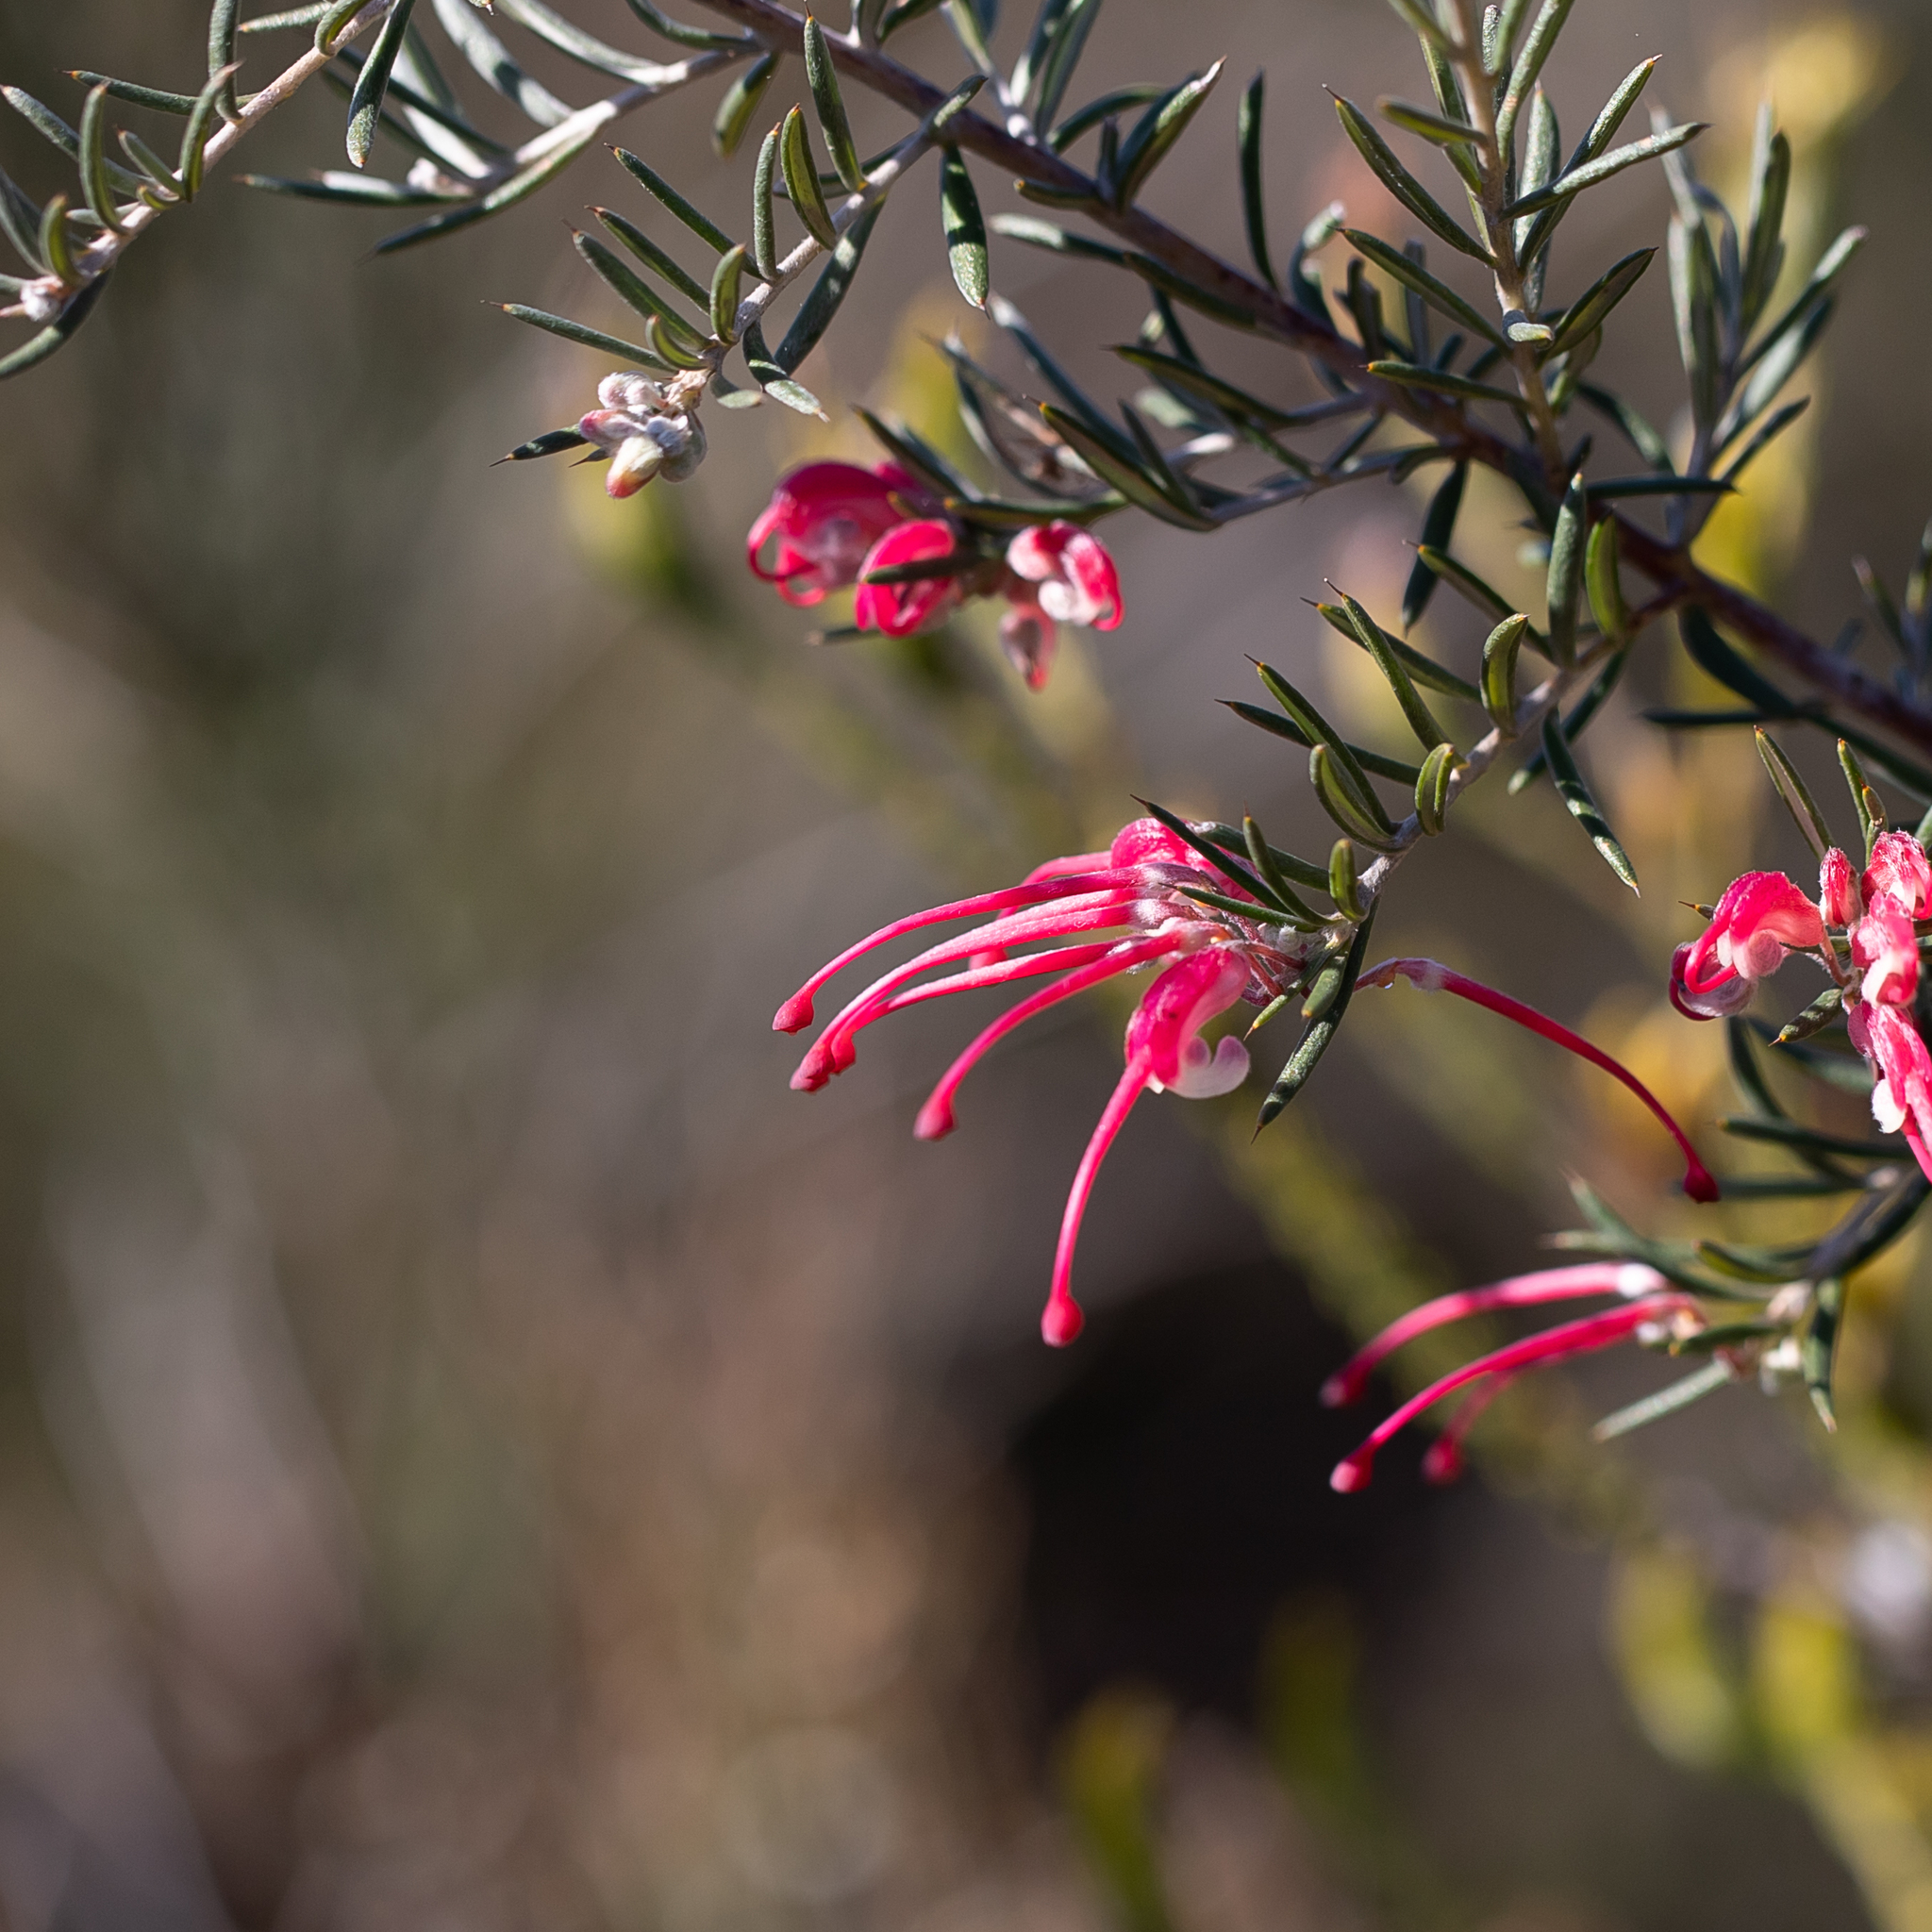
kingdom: Plantae
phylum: Tracheophyta
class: Magnoliopsida
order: Proteales
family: Proteaceae
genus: Grevillea
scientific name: Grevillea lavandulacea
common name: Lavender grevillea
